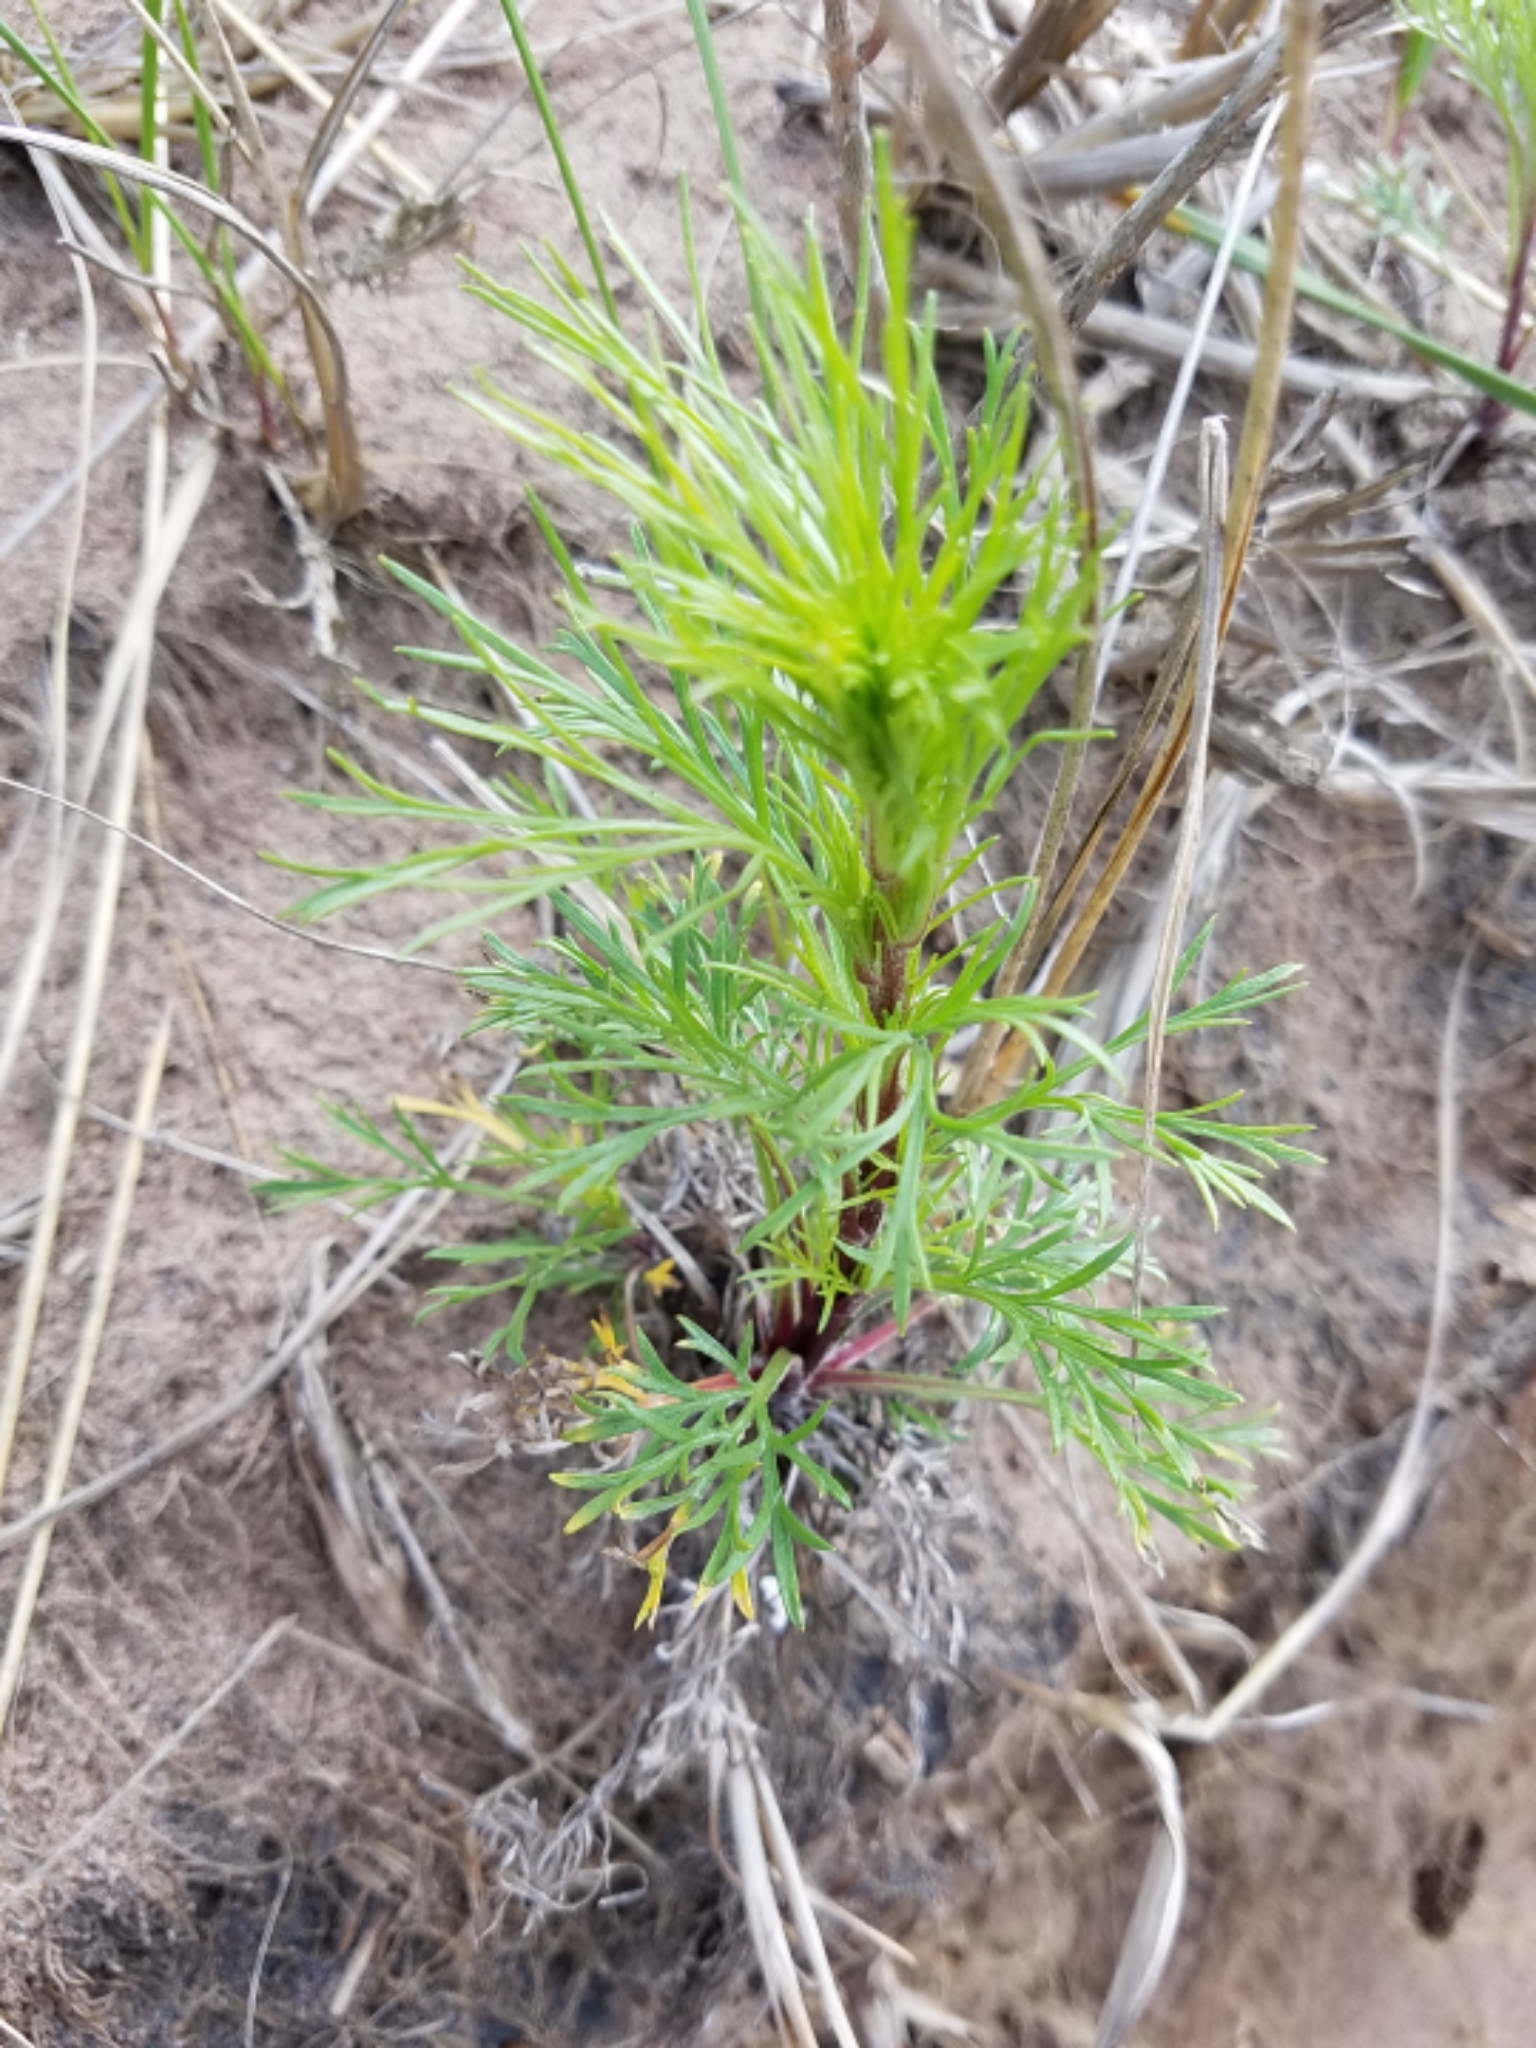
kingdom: Plantae
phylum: Tracheophyta
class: Magnoliopsida
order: Asterales
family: Asteraceae
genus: Artemisia
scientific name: Artemisia campestris
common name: Field wormwood
